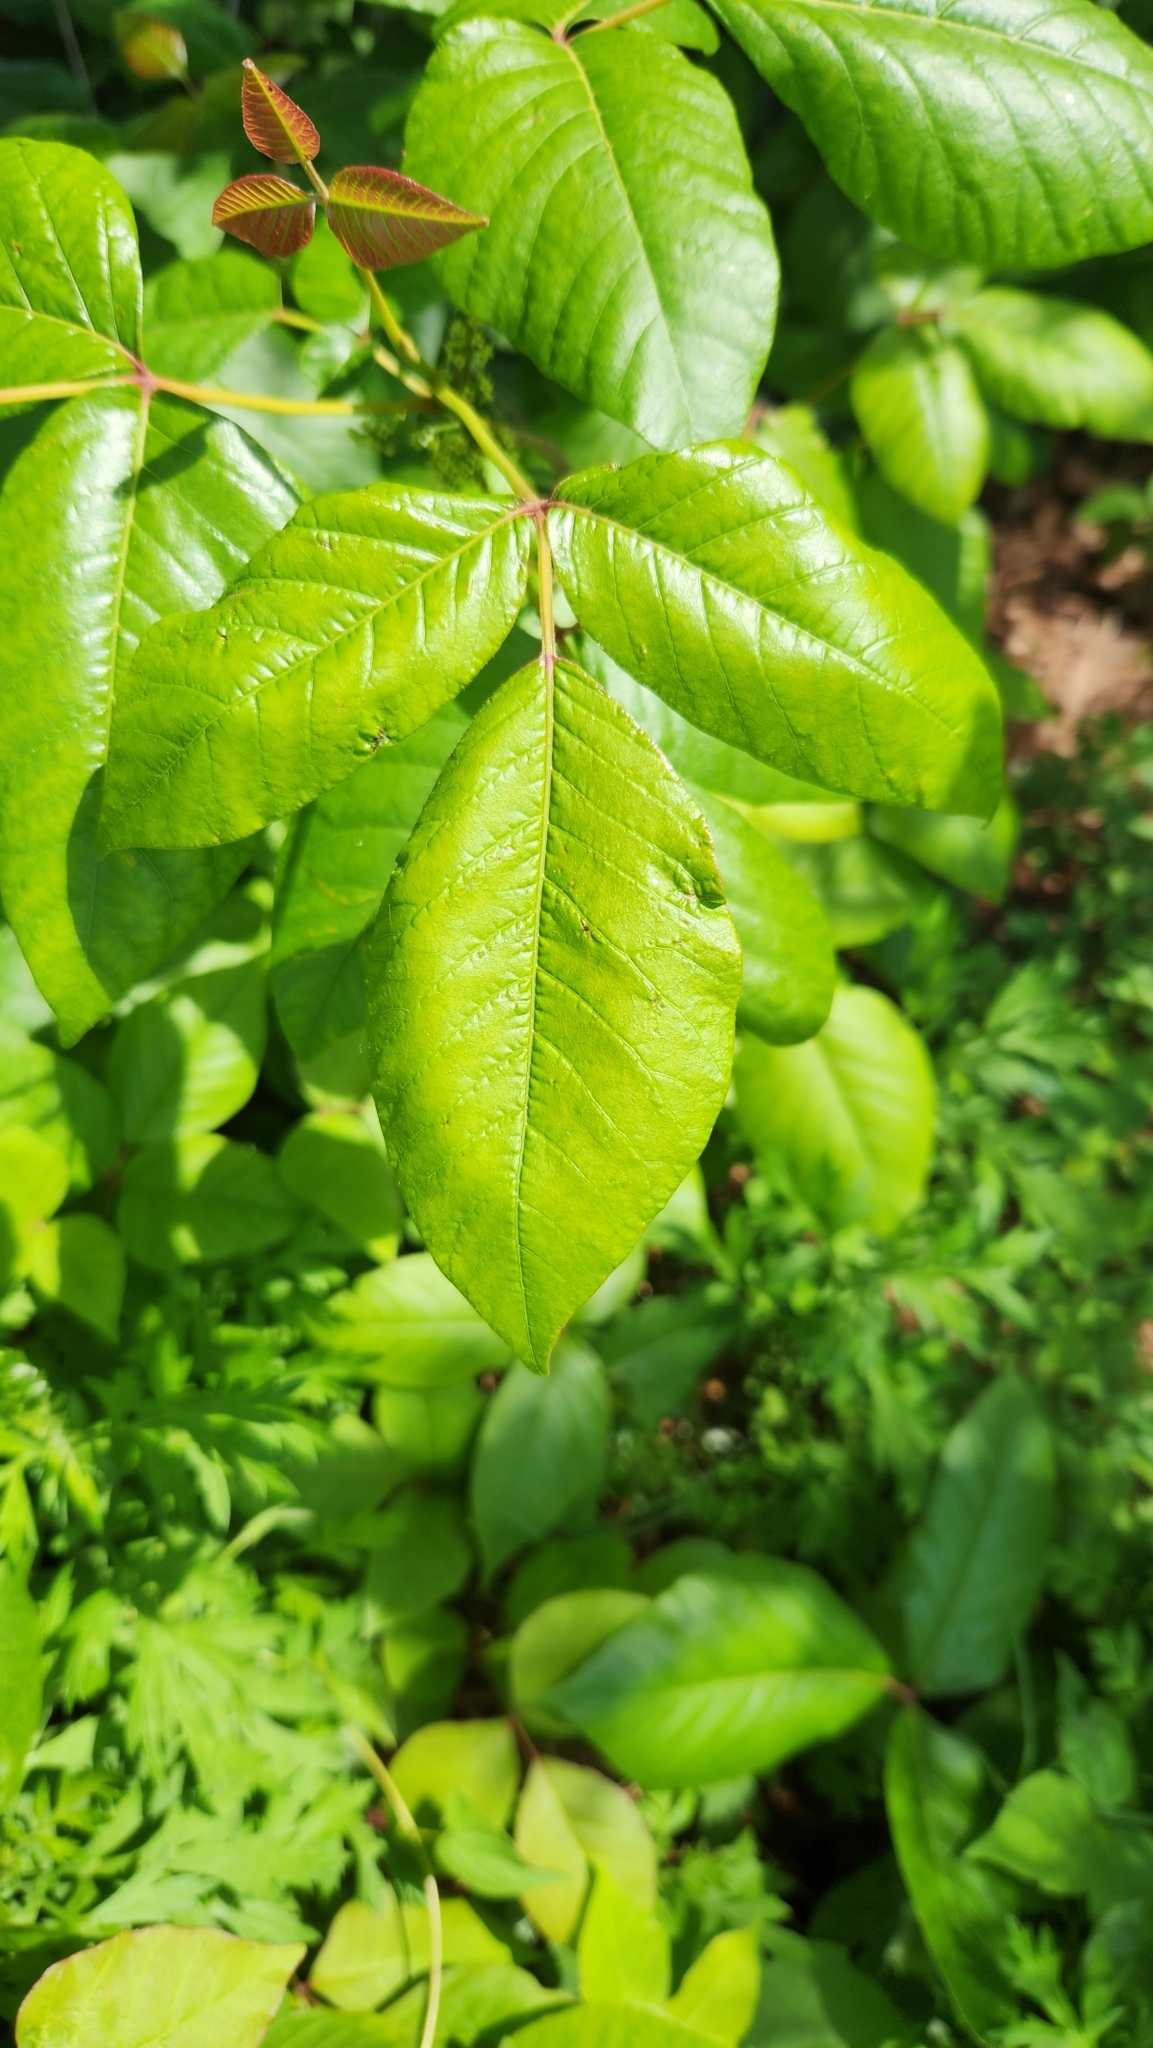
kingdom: Plantae
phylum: Tracheophyta
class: Magnoliopsida
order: Sapindales
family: Anacardiaceae
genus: Toxicodendron
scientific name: Toxicodendron radicans
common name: Poison ivy
